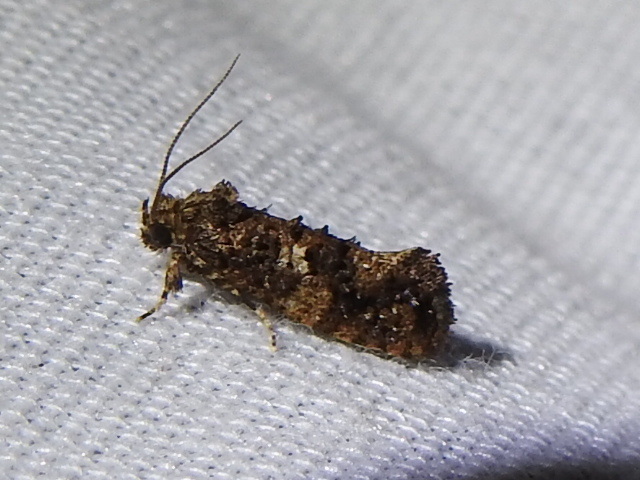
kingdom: Animalia
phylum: Arthropoda
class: Insecta
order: Lepidoptera
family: Tineidae
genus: Acrolophus
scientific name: Acrolophus cressoni
